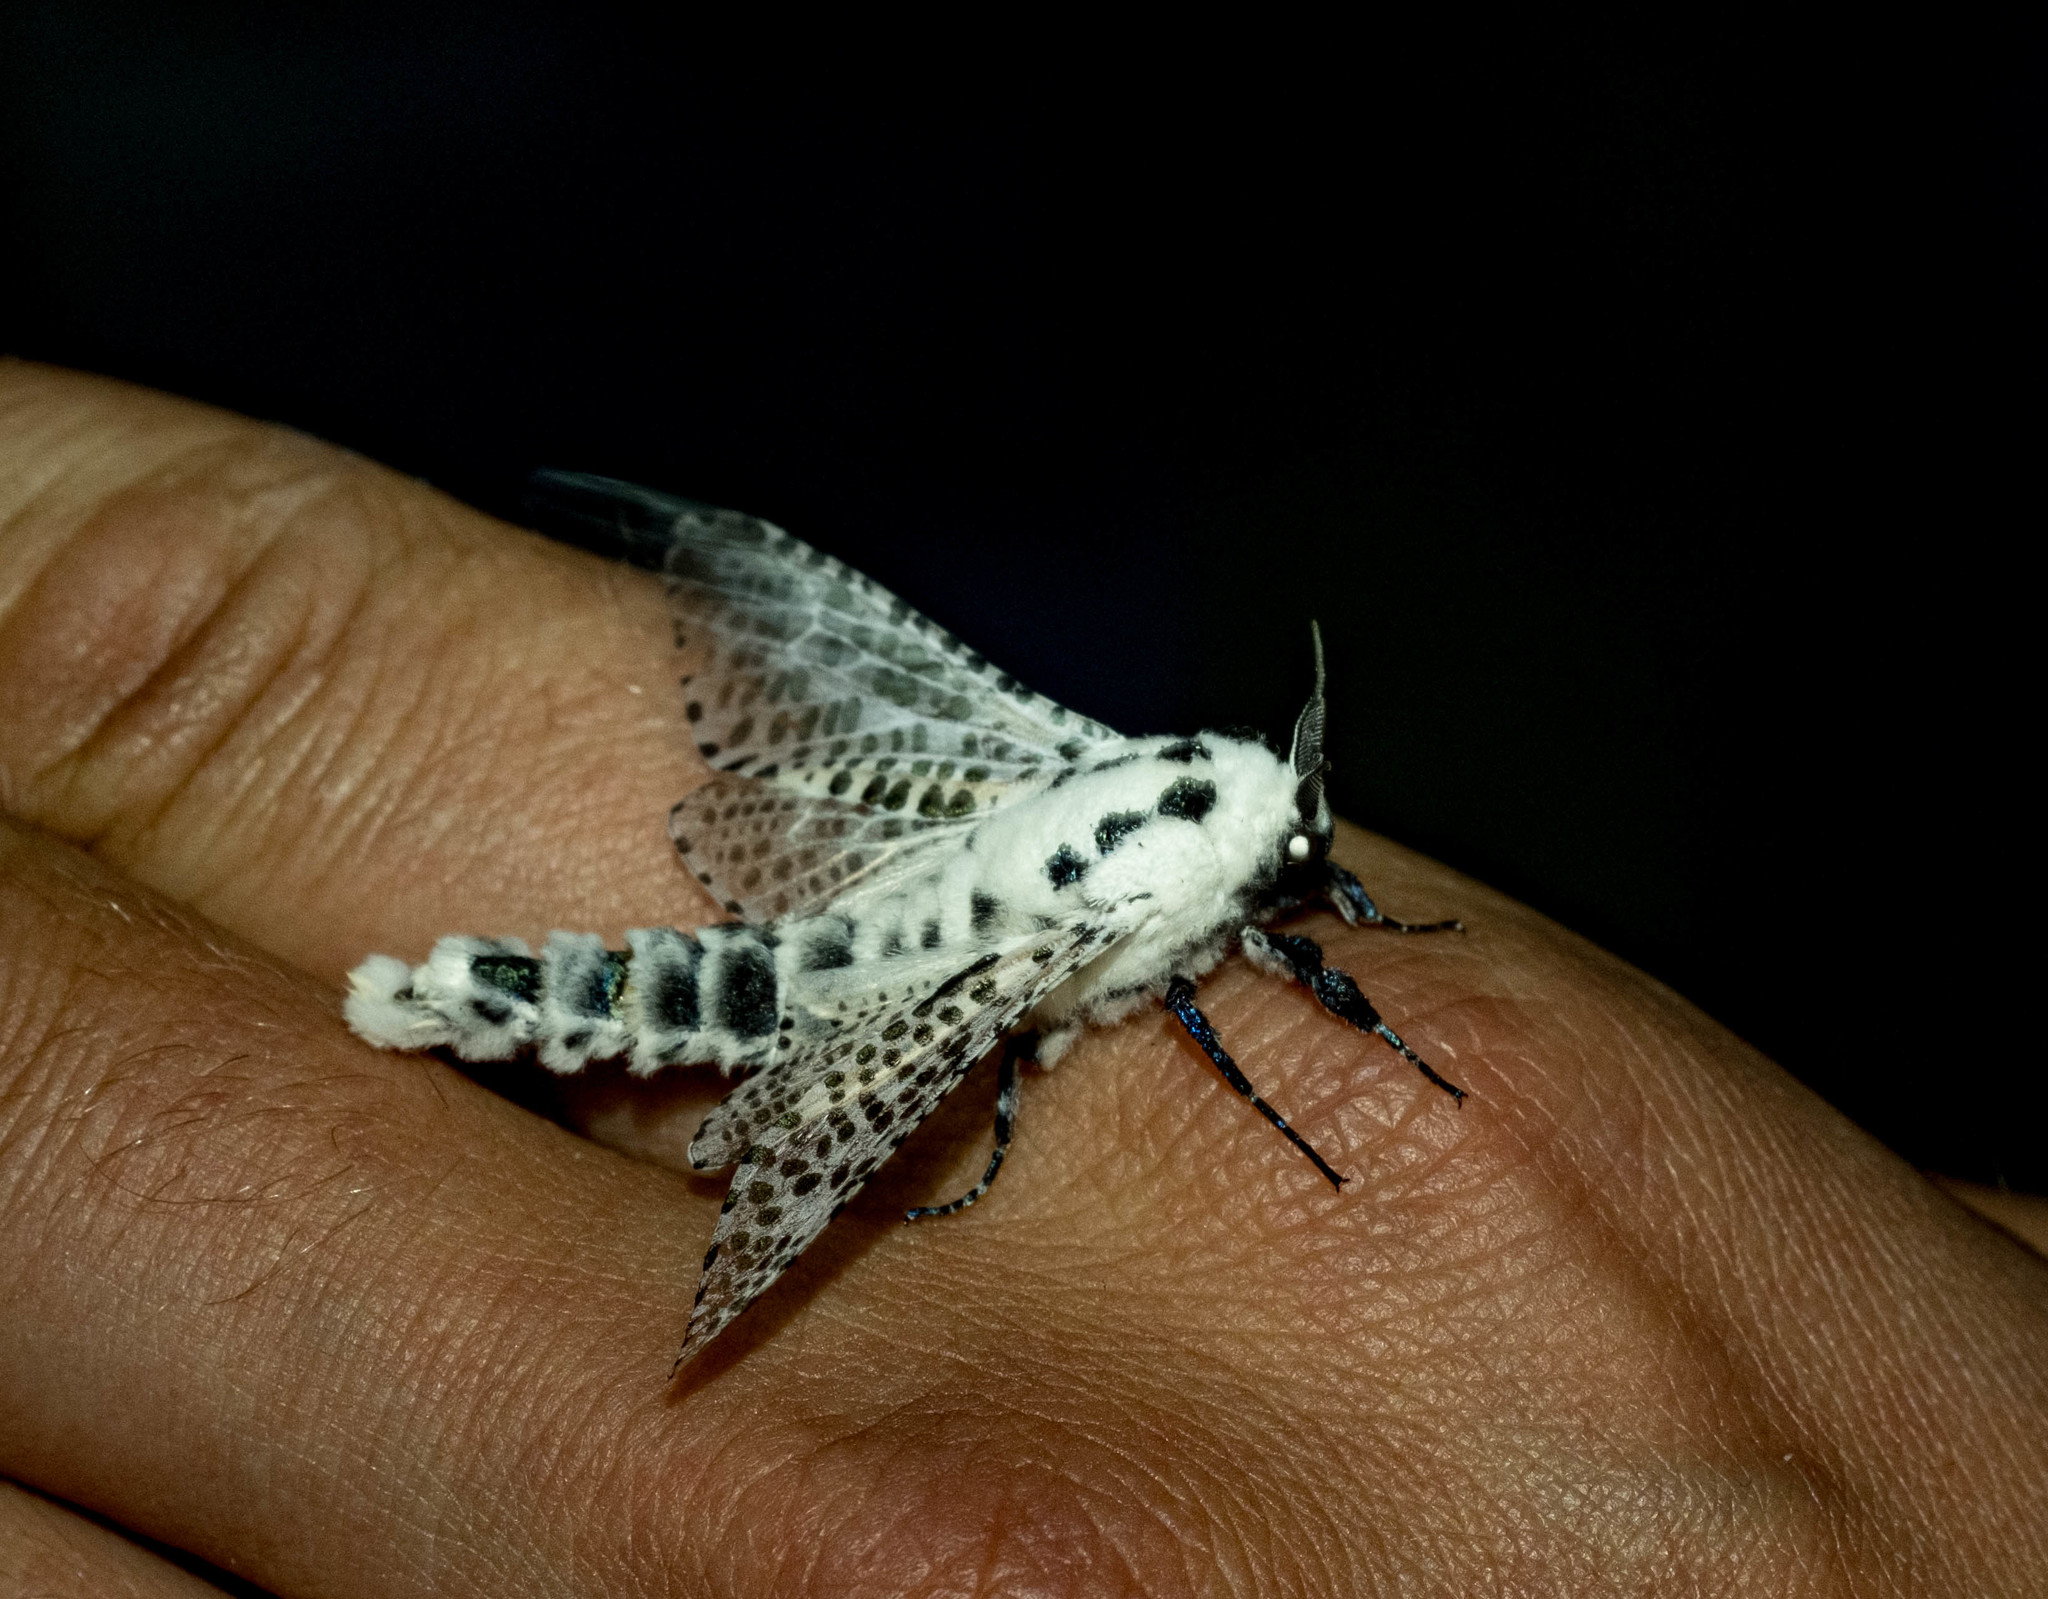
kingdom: Animalia
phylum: Arthropoda
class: Insecta
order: Lepidoptera
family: Cossidae
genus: Zeuzera
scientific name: Zeuzera pyrina
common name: Leopard moth
